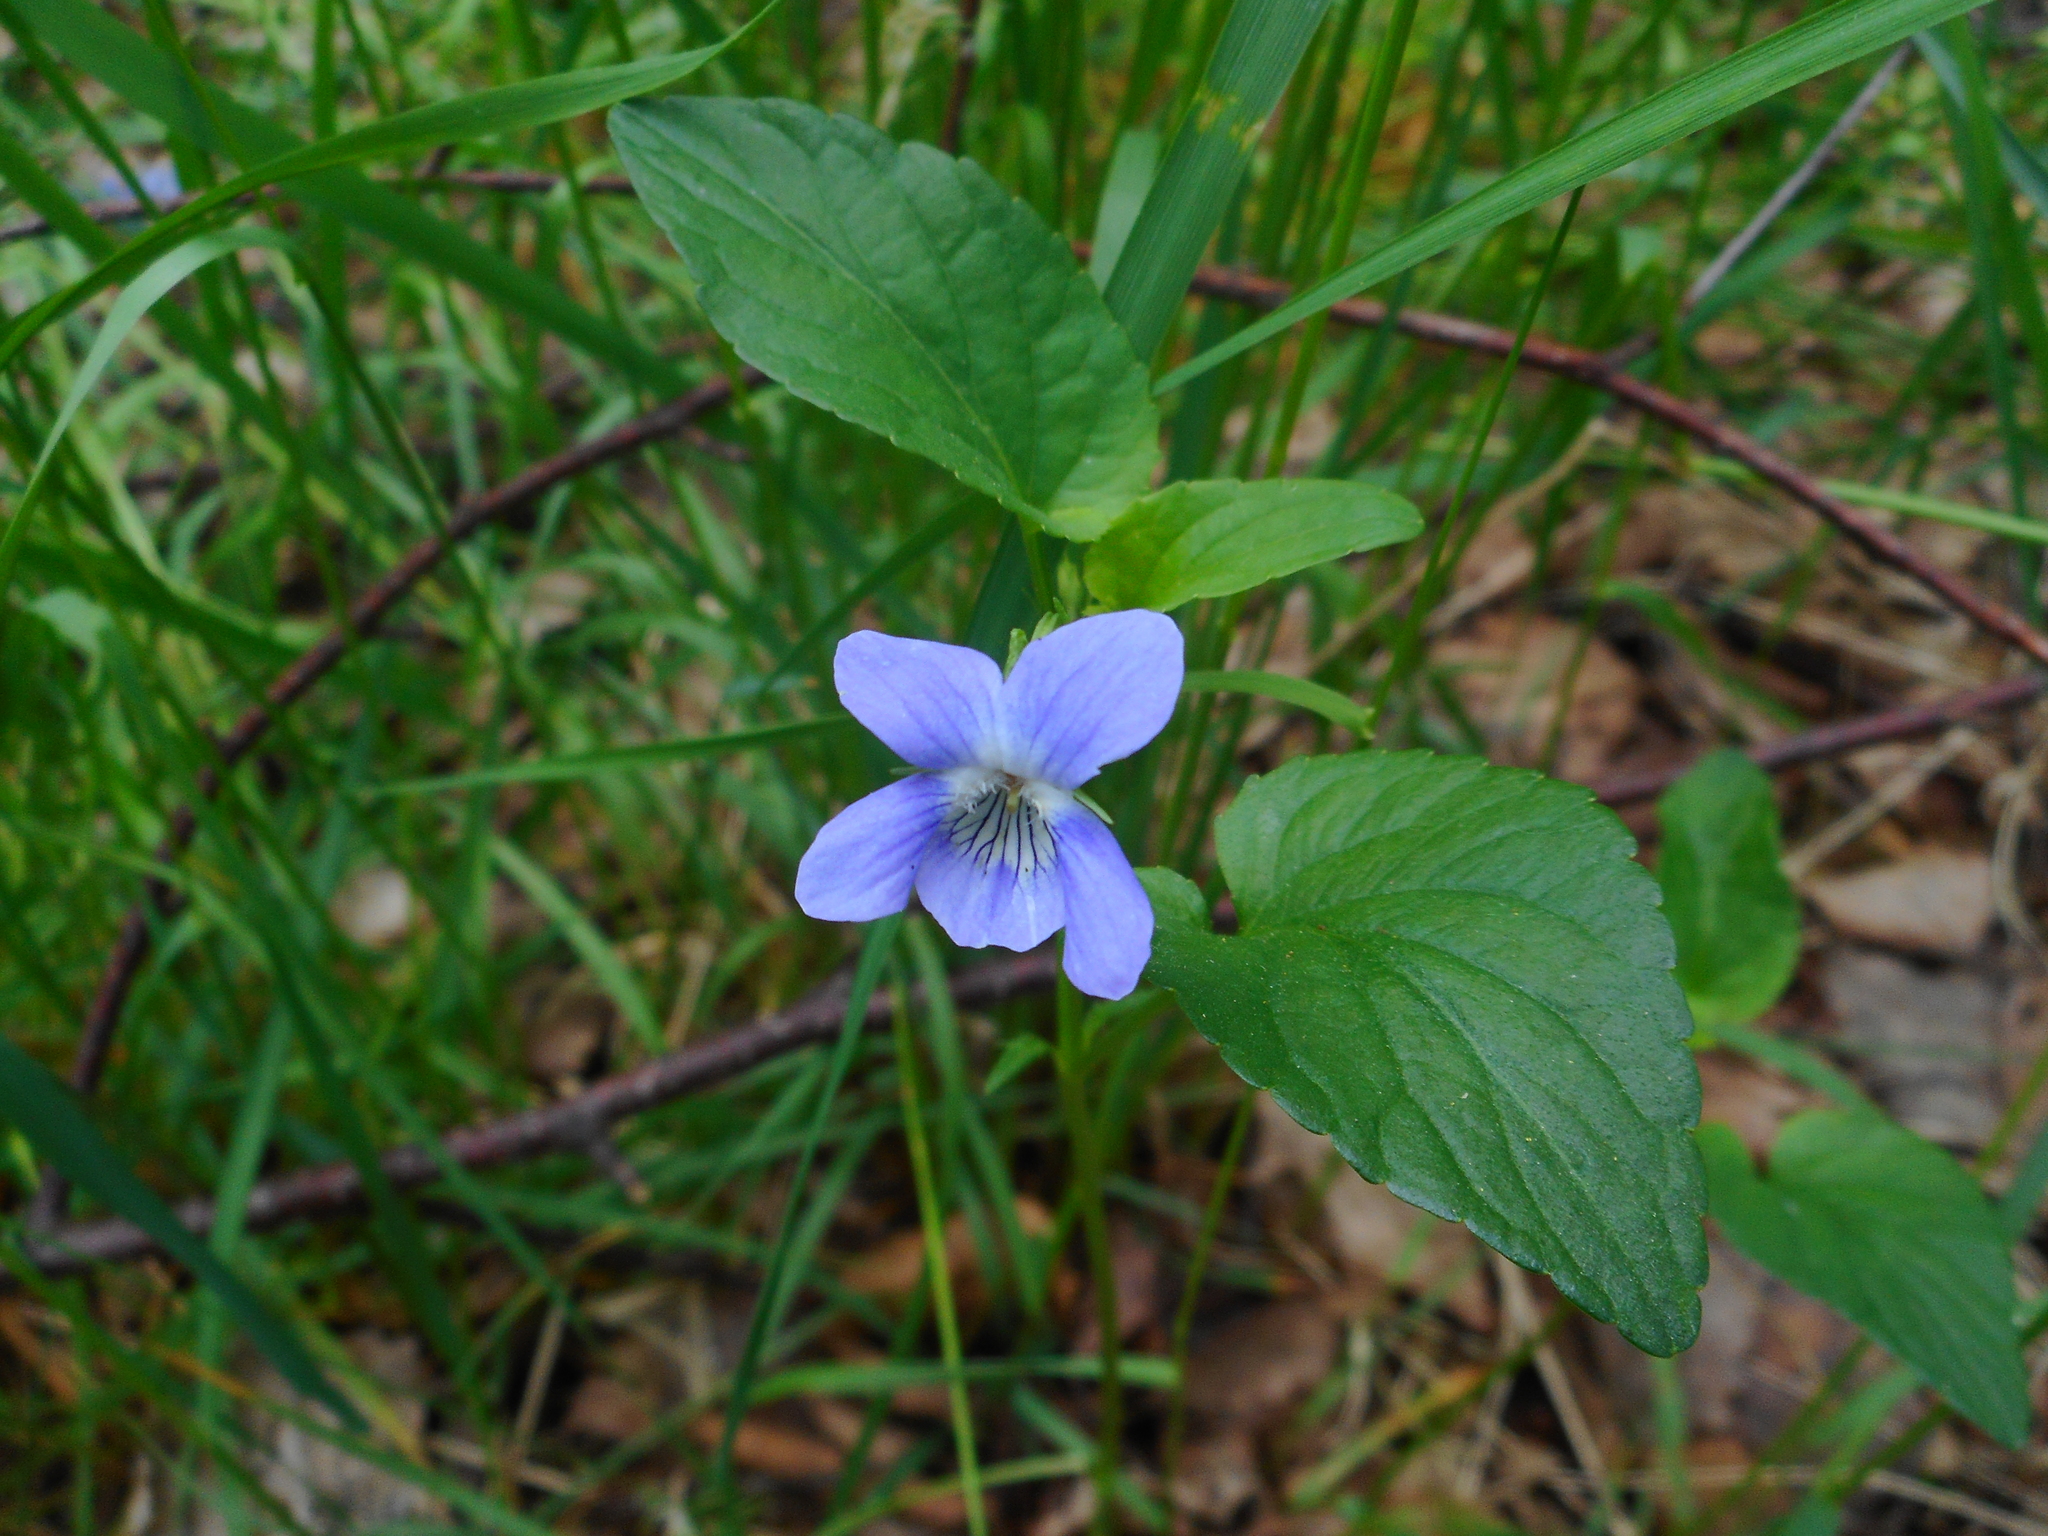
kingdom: Plantae
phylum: Tracheophyta
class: Magnoliopsida
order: Malpighiales
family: Violaceae
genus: Viola
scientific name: Viola canina
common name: Heath dog-violet
